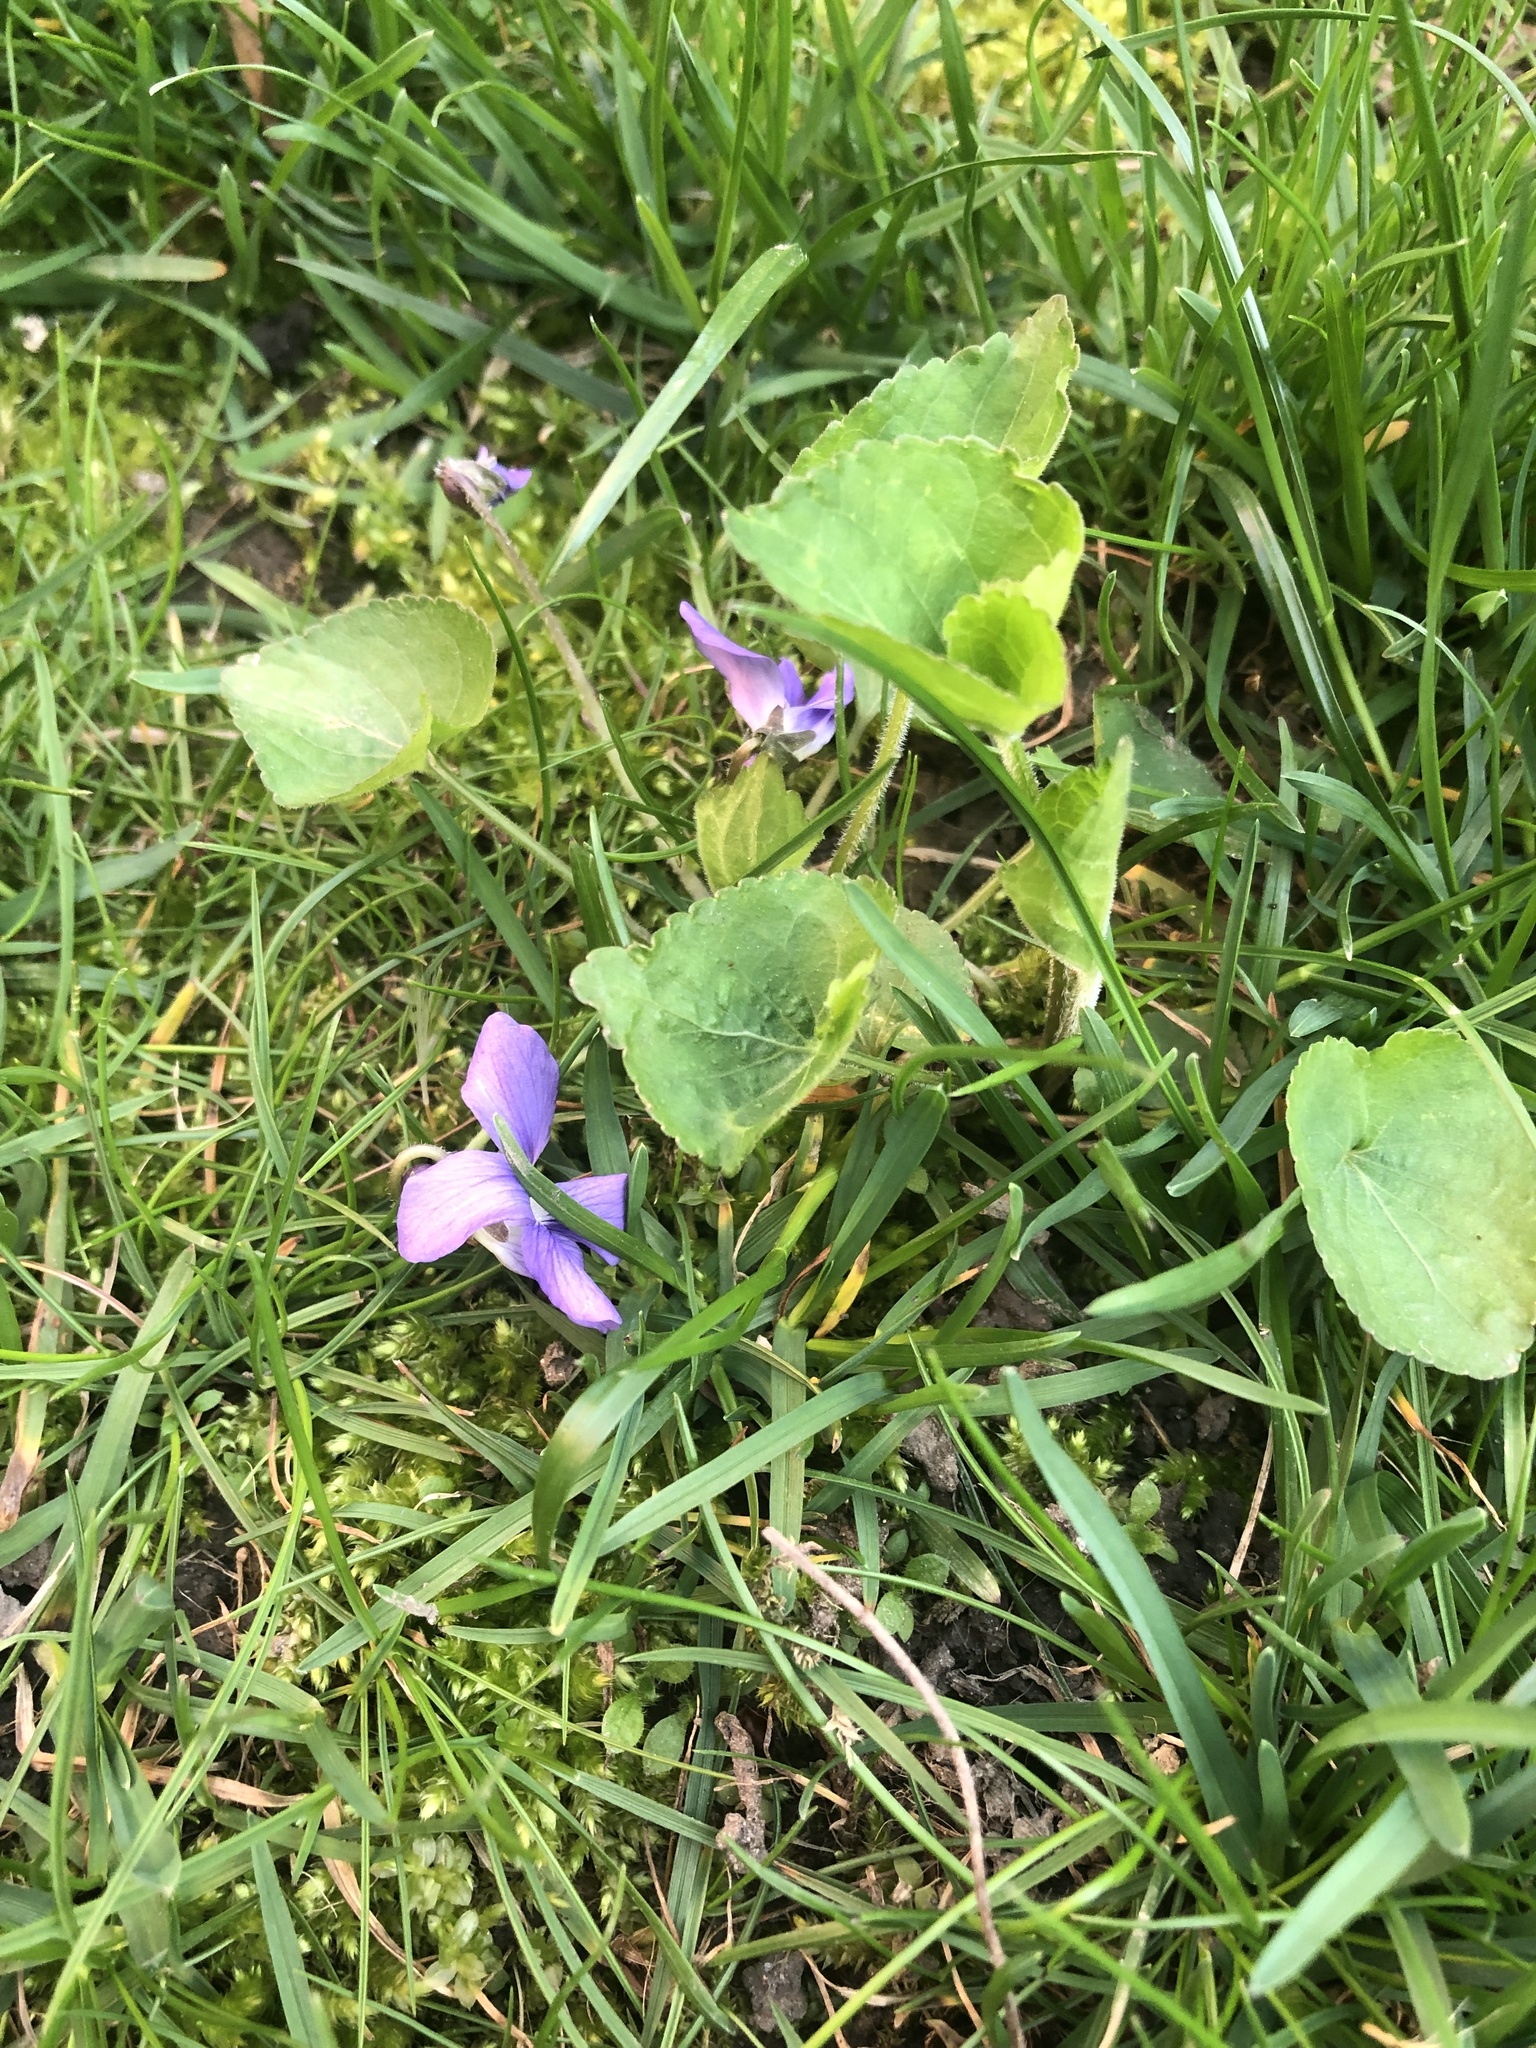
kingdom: Plantae
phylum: Tracheophyta
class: Magnoliopsida
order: Malpighiales
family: Violaceae
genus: Viola
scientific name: Viola sororia
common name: Dooryard violet
